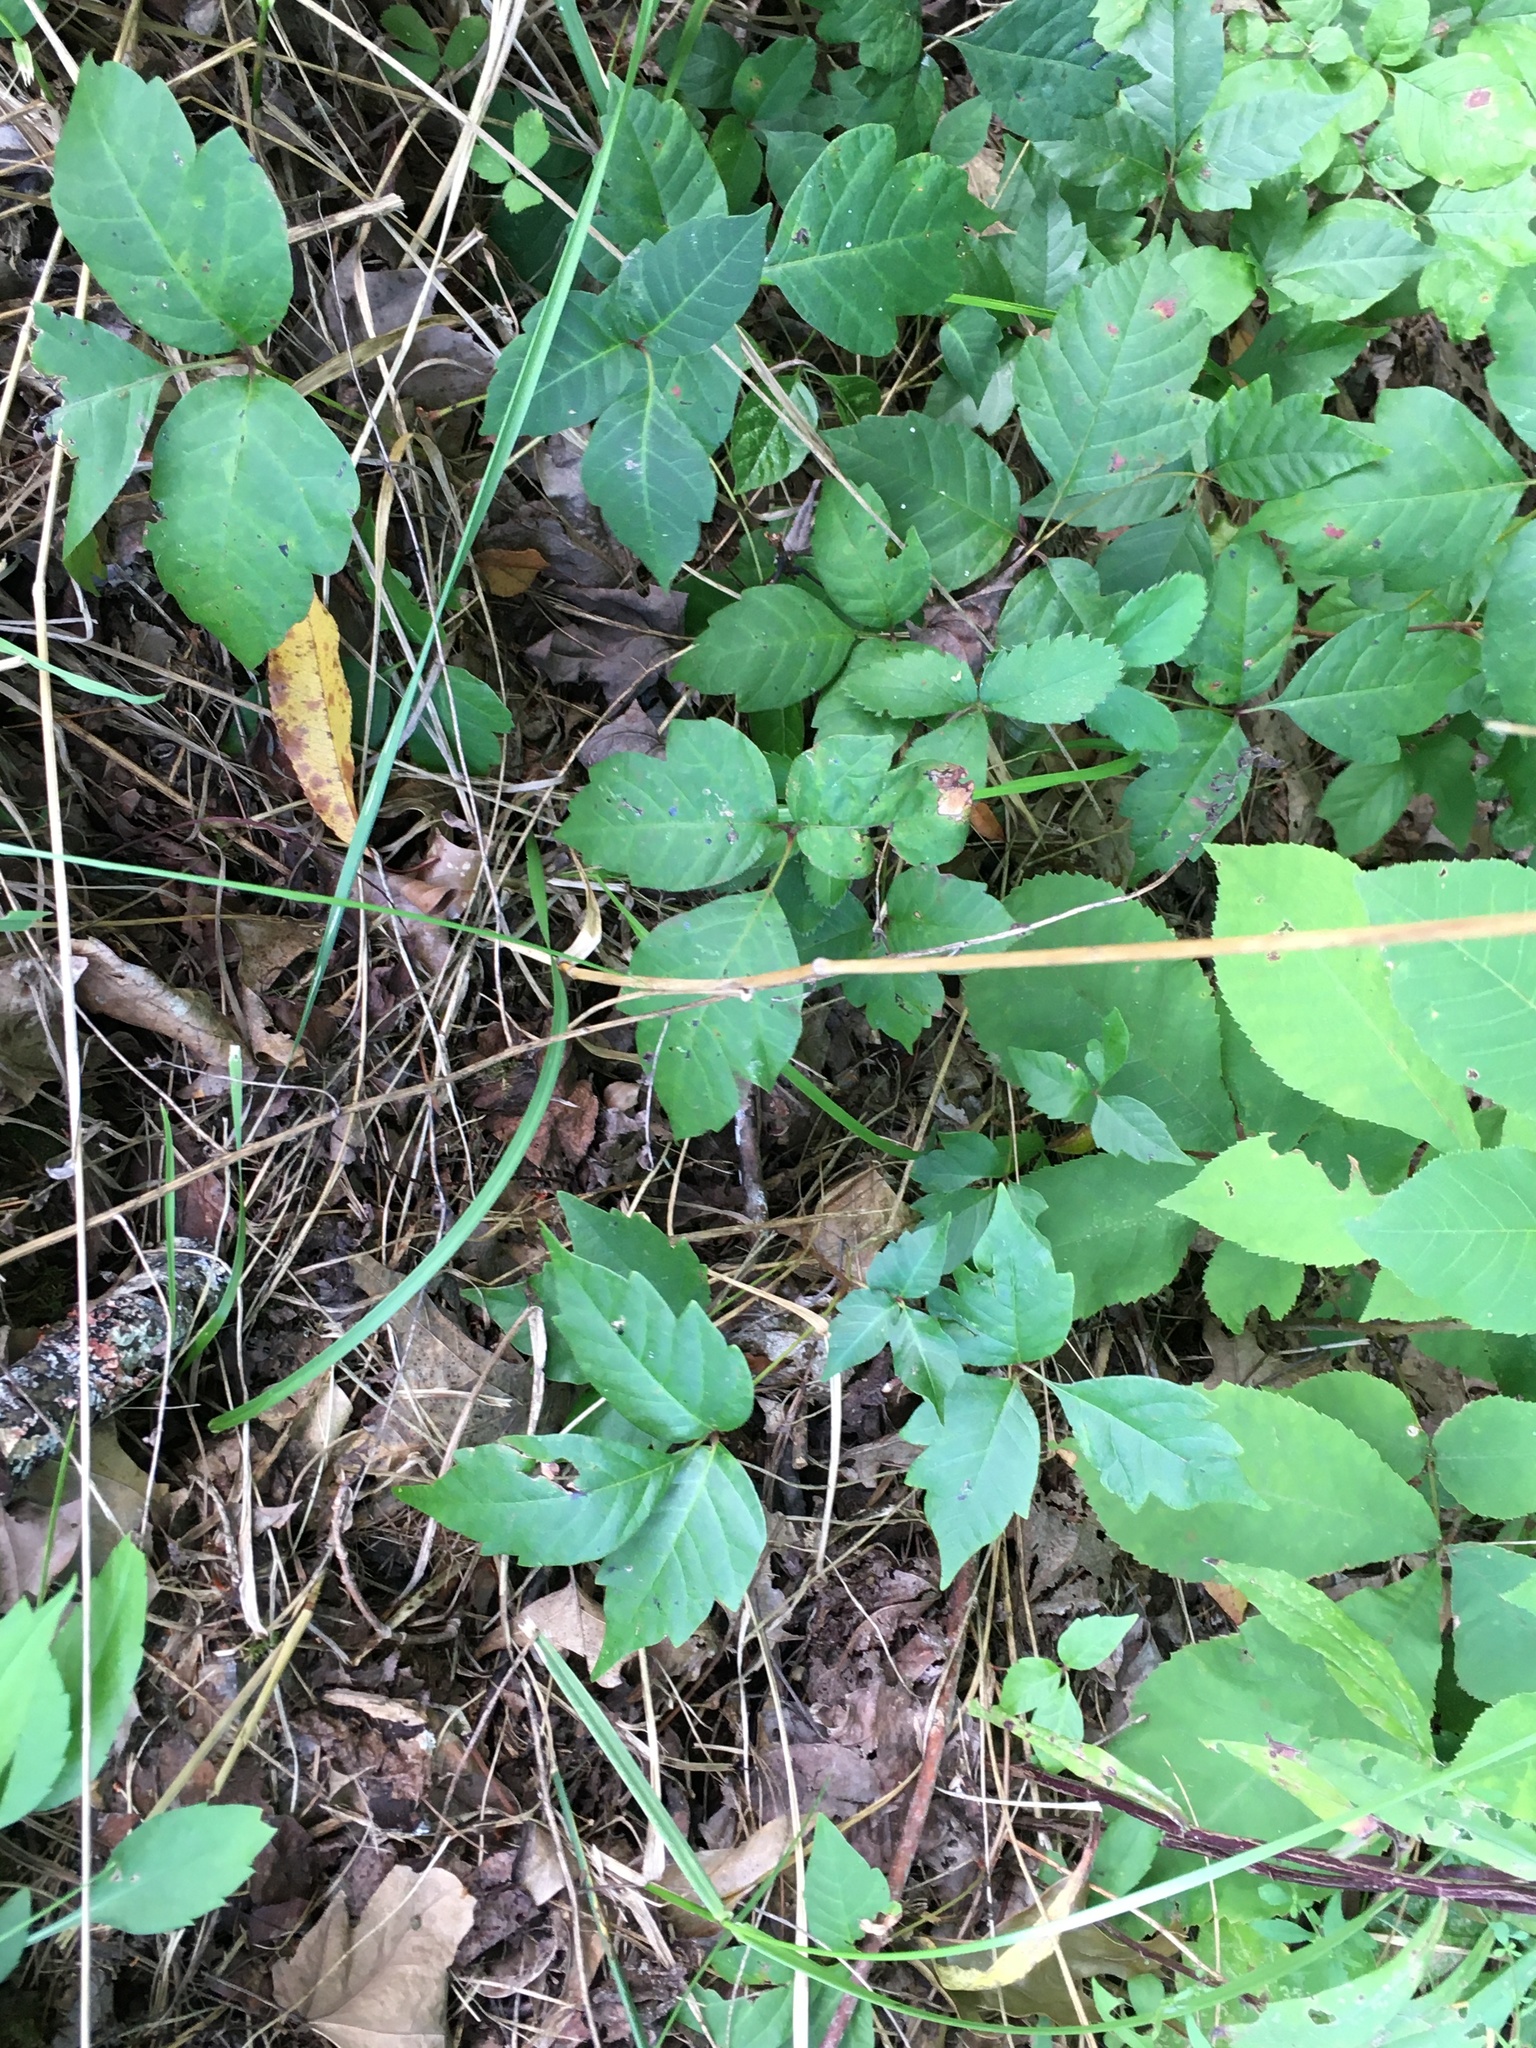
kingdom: Plantae
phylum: Tracheophyta
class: Magnoliopsida
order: Sapindales
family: Anacardiaceae
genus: Toxicodendron
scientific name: Toxicodendron radicans
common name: Poison ivy
